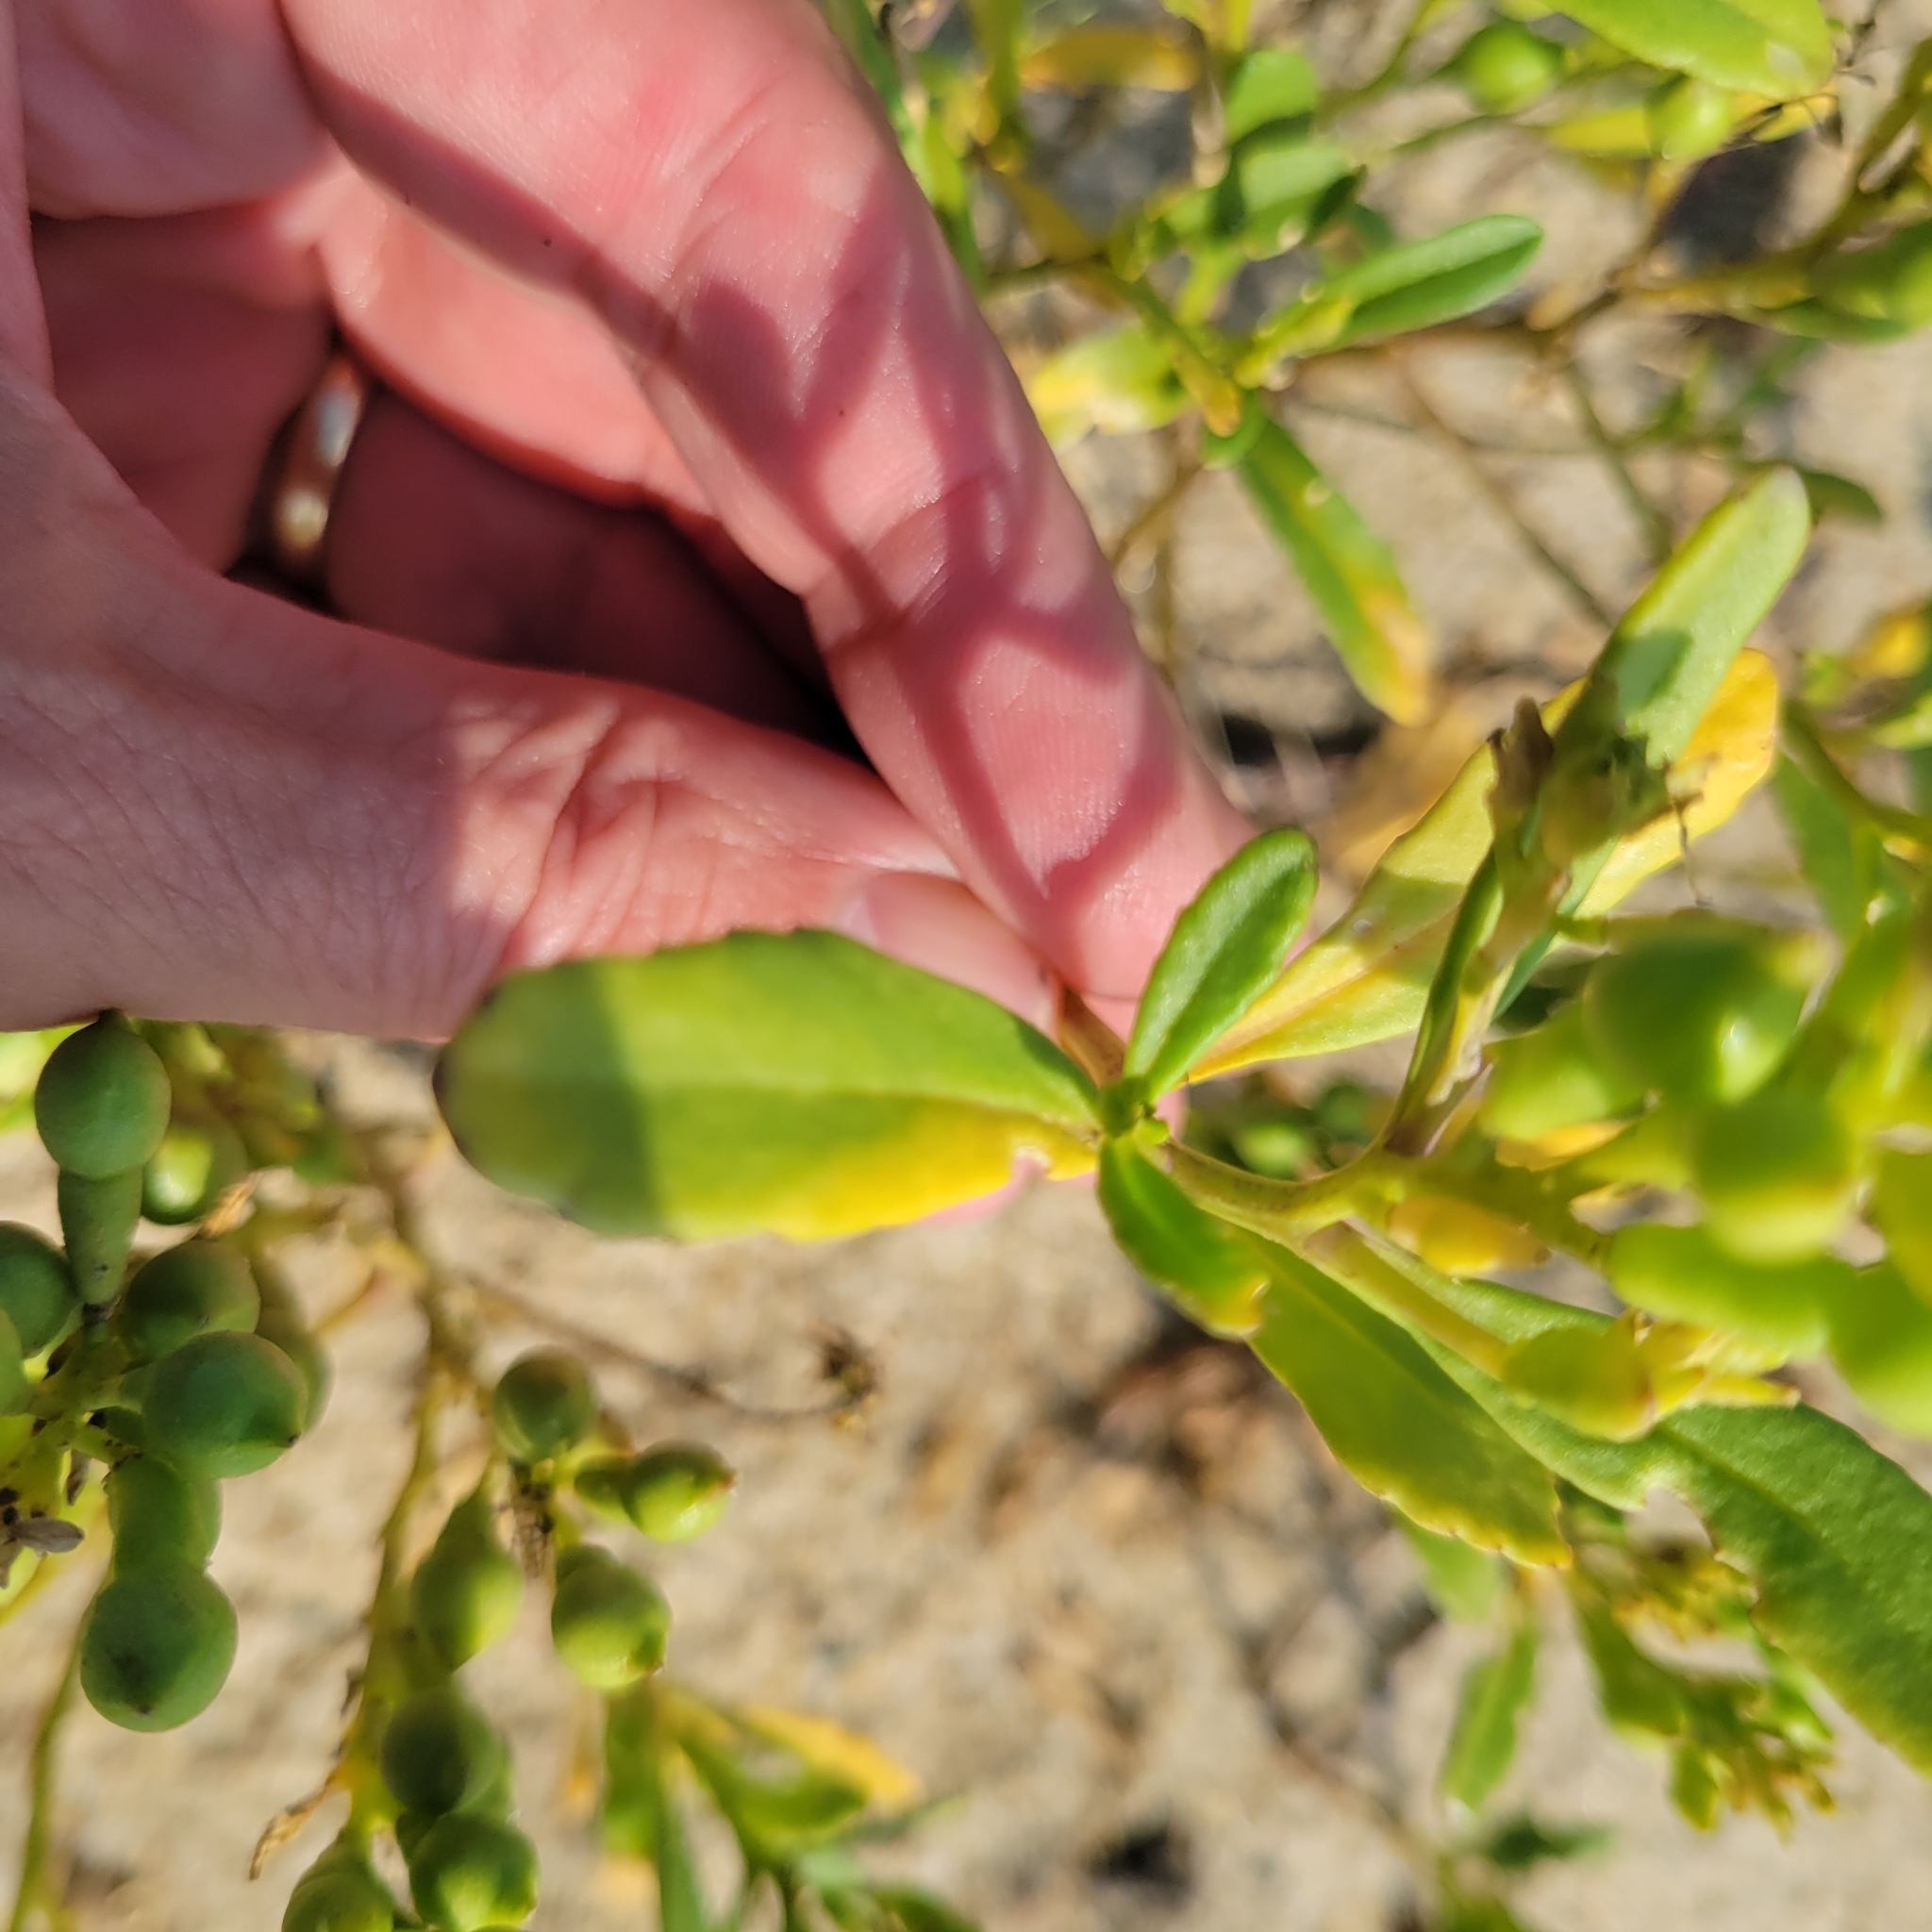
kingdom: Plantae
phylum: Tracheophyta
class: Magnoliopsida
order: Brassicales
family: Brassicaceae
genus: Cakile
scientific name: Cakile edentula
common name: American sea rocket
